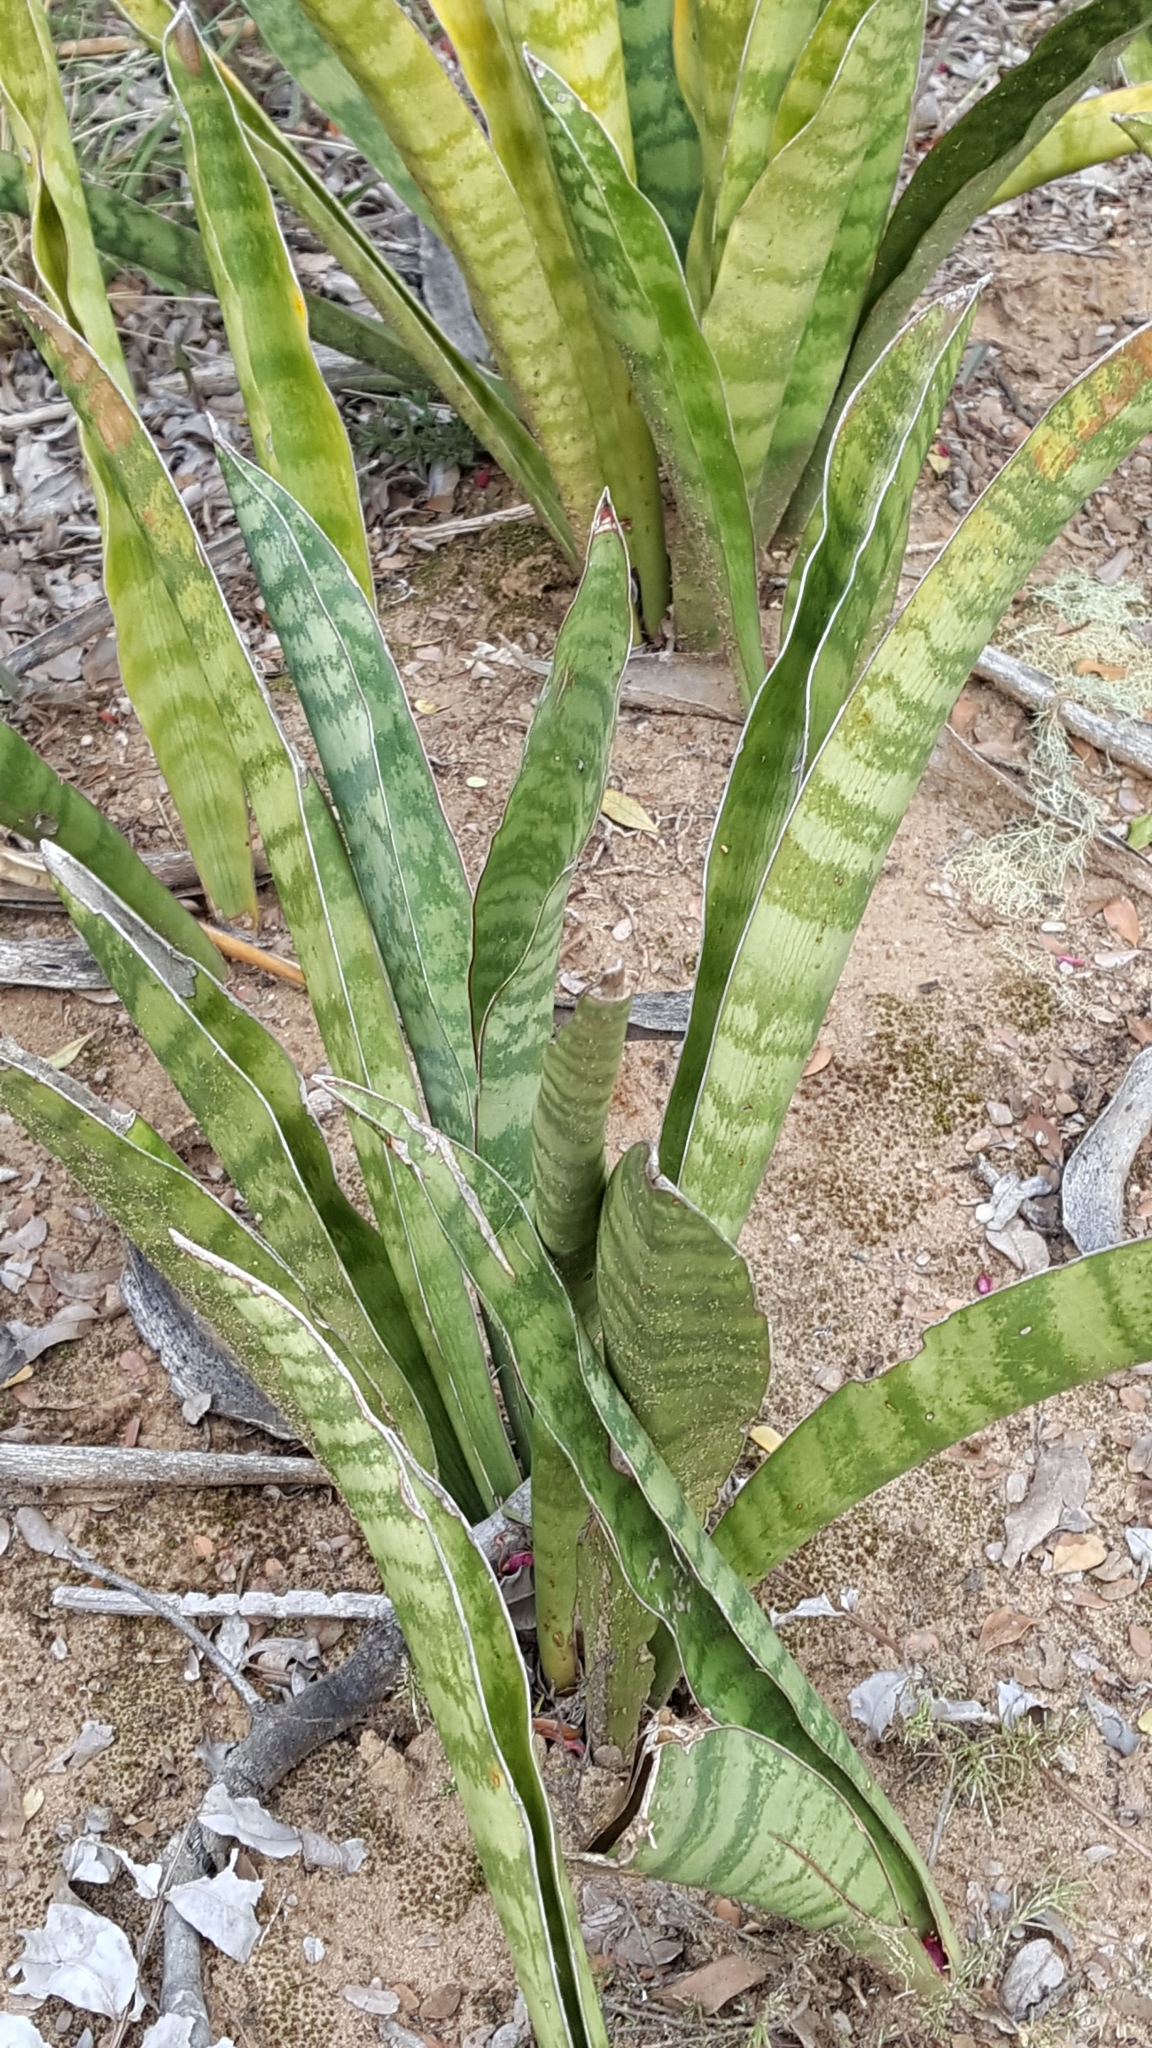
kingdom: Plantae
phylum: Tracheophyta
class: Liliopsida
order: Asparagales
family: Asparagaceae
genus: Dracaena
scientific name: Dracaena hyacinthoides
